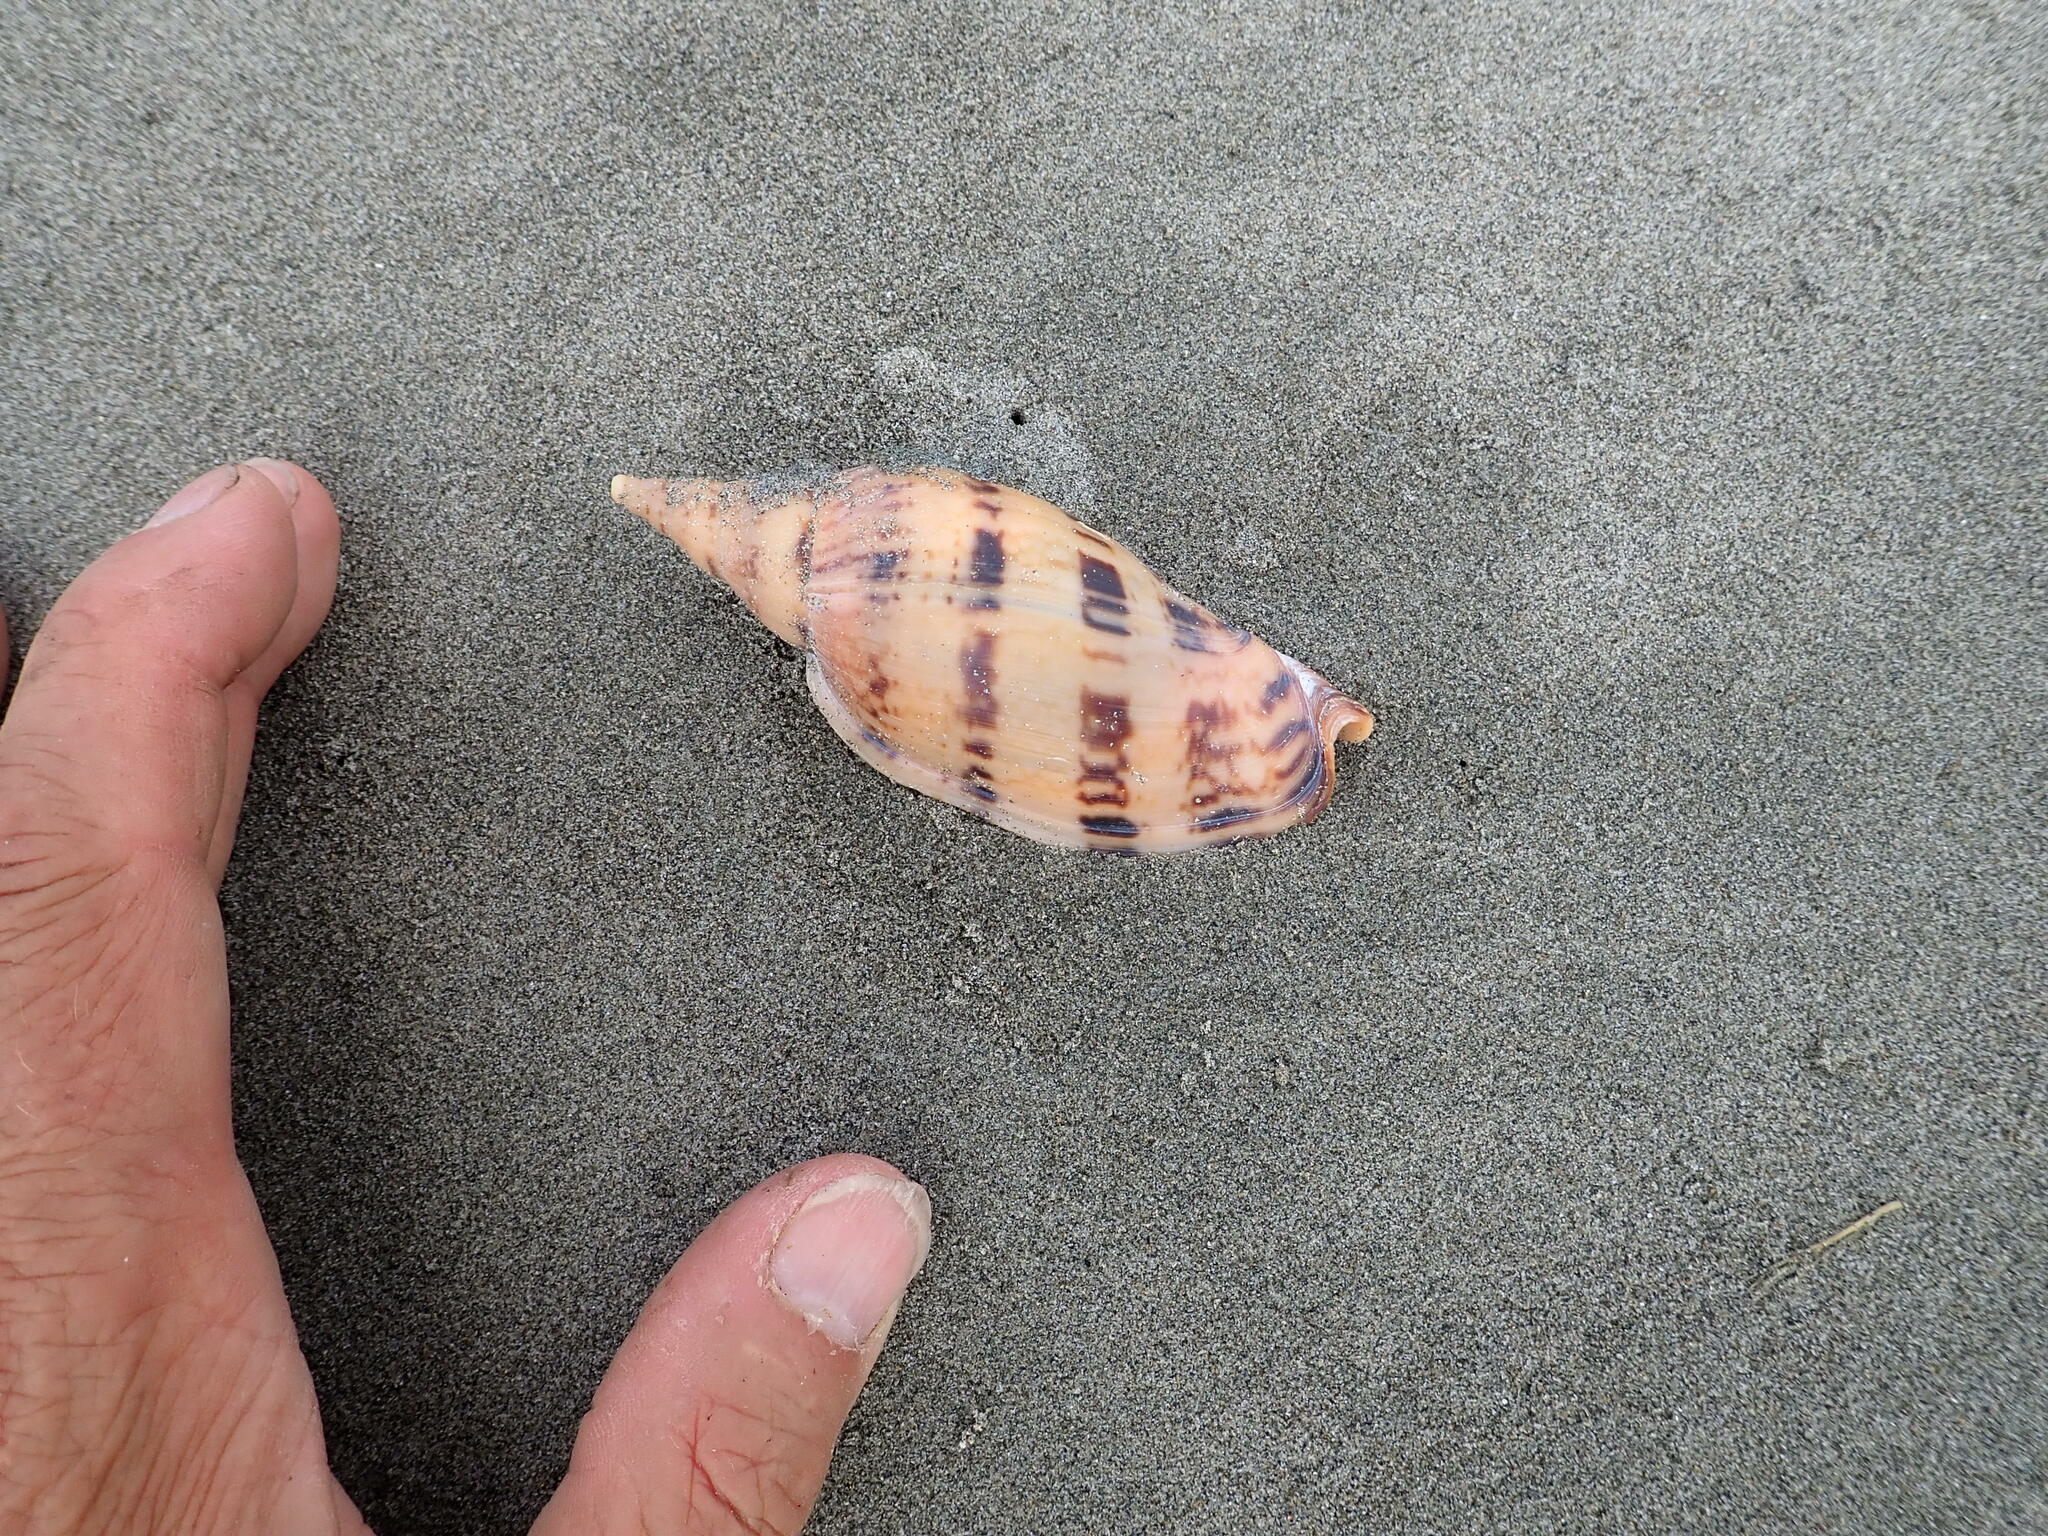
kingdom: Animalia
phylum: Mollusca
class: Gastropoda
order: Neogastropoda
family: Volutidae
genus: Alcithoe
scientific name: Alcithoe arabica
